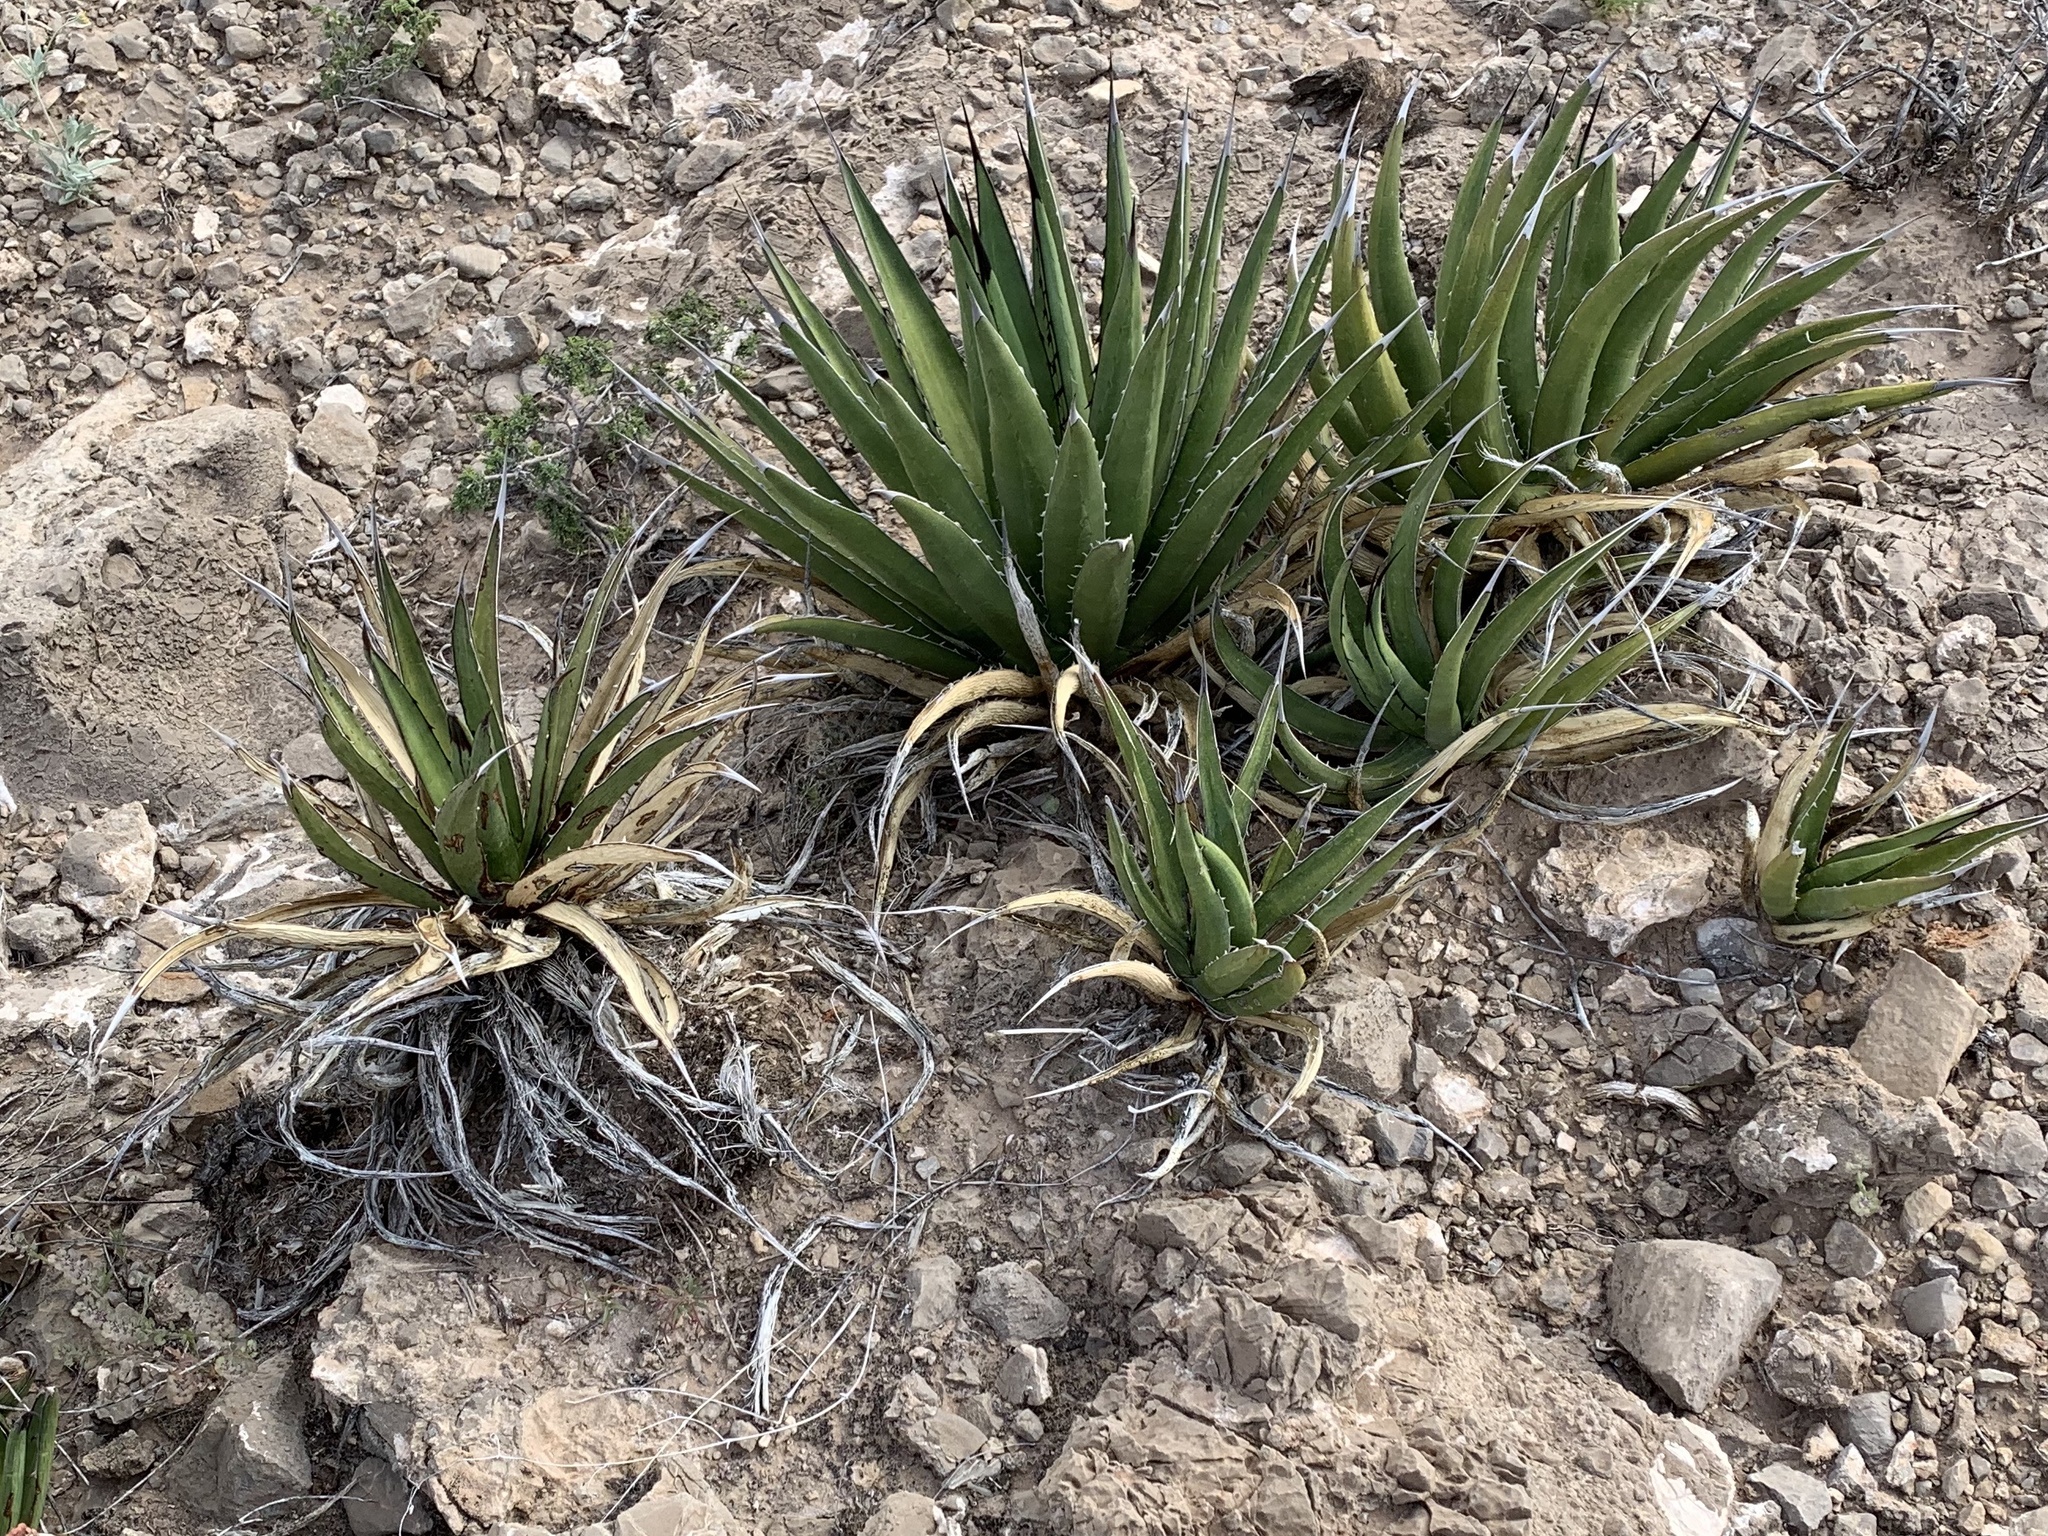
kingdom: Plantae
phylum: Tracheophyta
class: Liliopsida
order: Asparagales
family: Asparagaceae
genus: Agave
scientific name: Agave lechuguilla
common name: Lecheguilla agave
